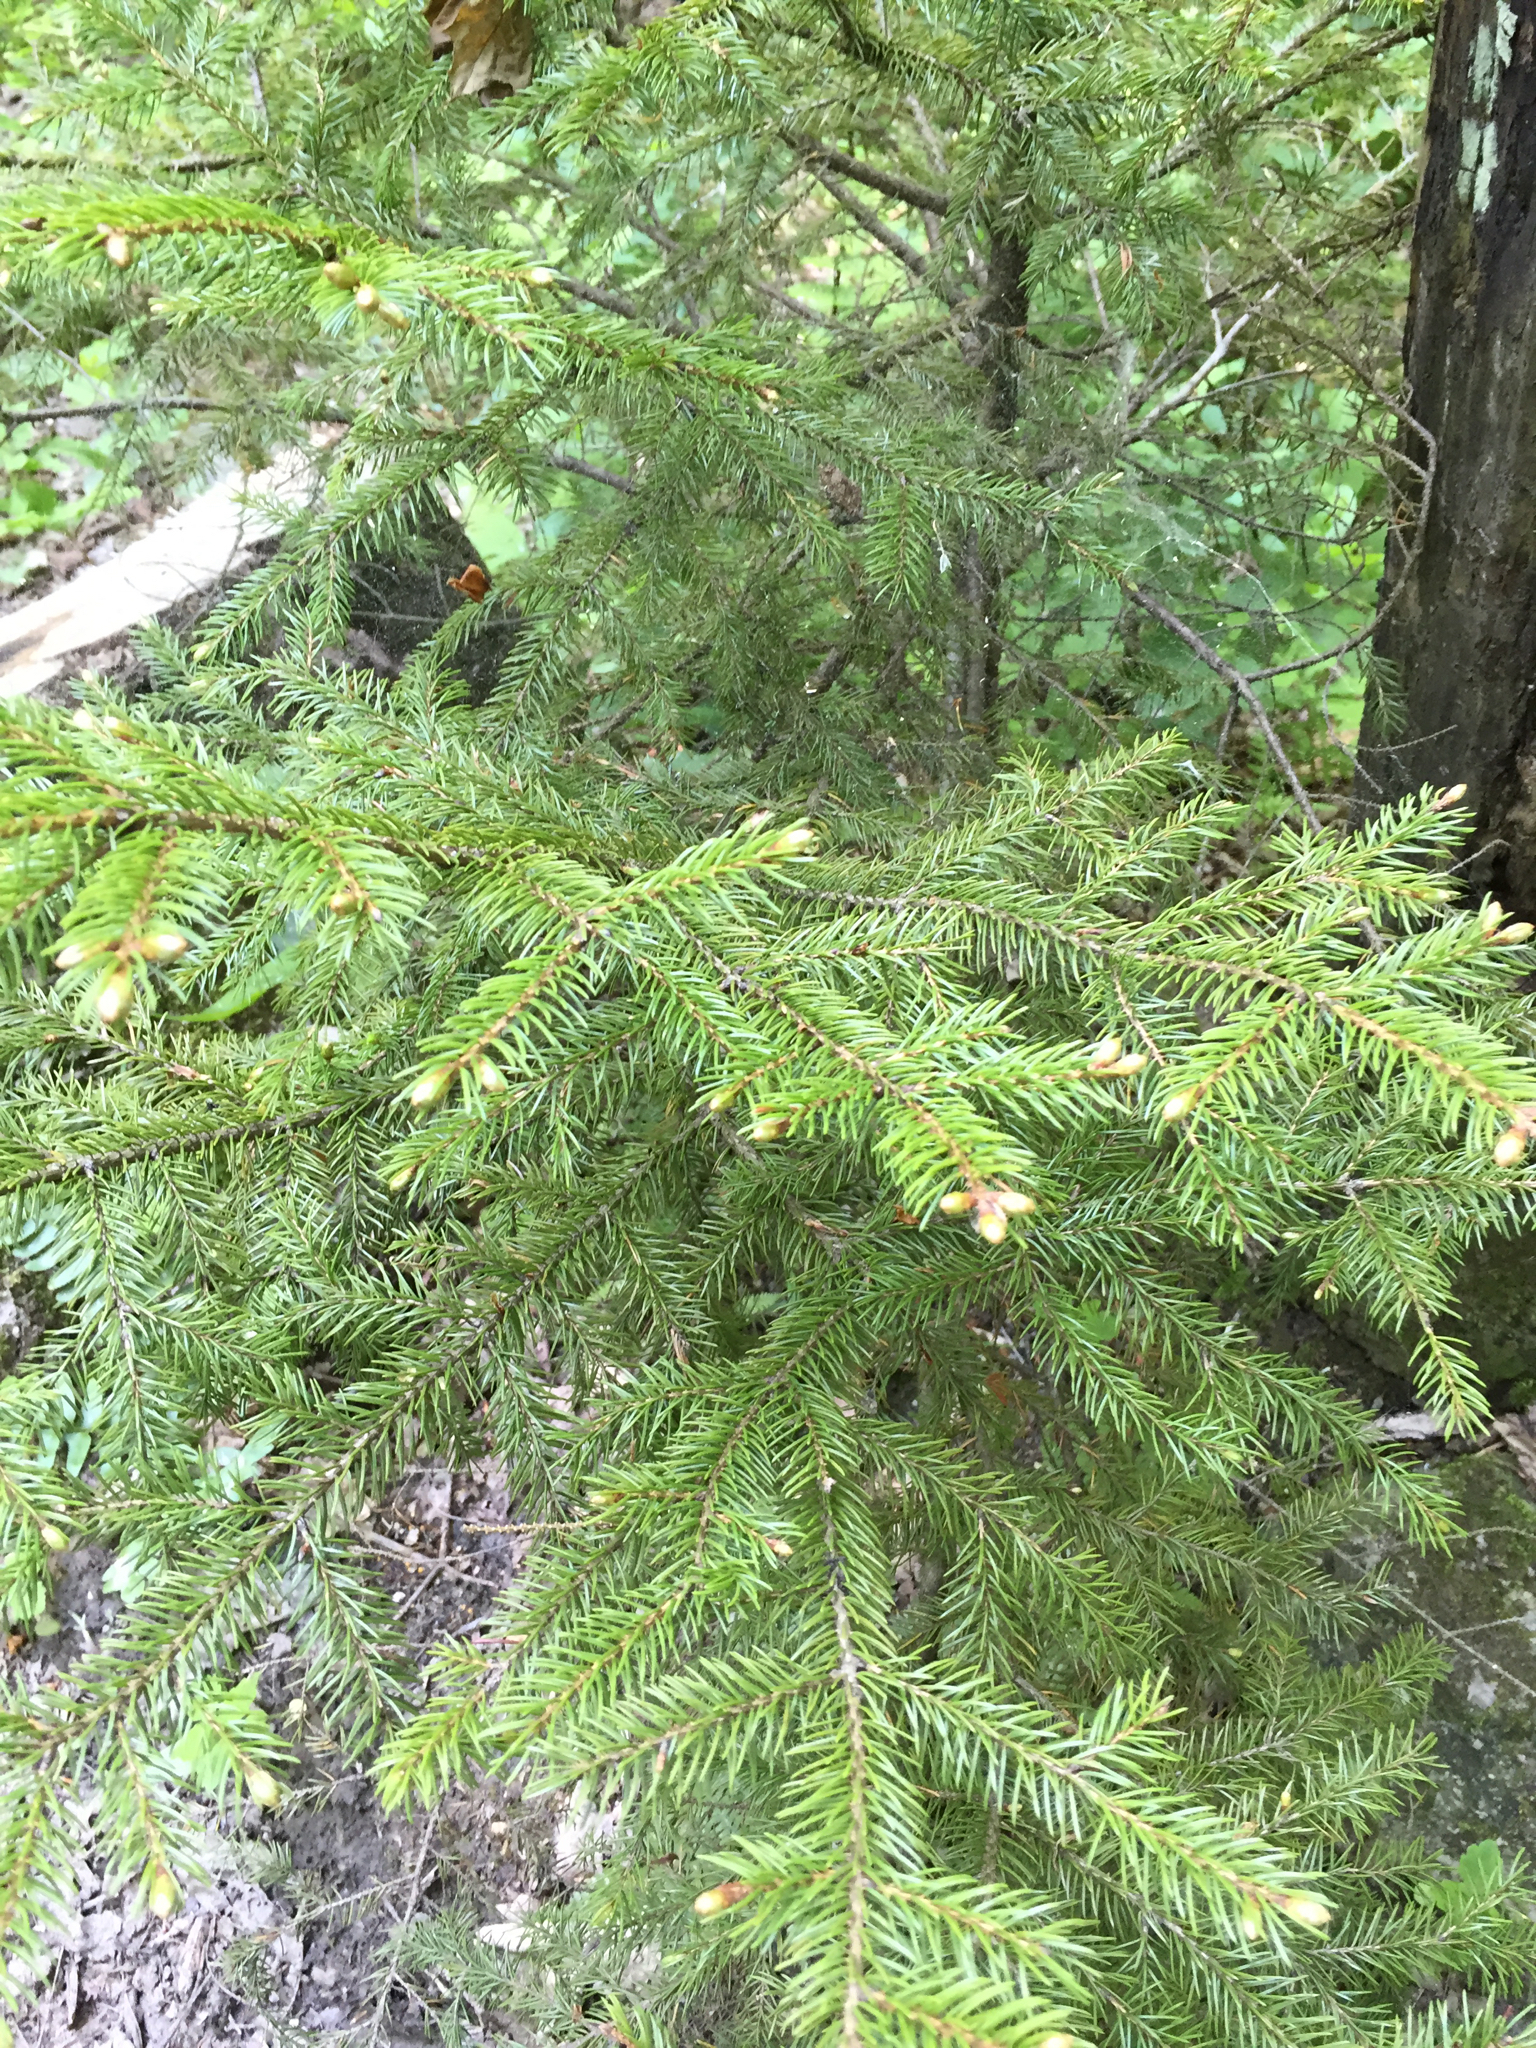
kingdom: Plantae
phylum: Tracheophyta
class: Pinopsida
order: Pinales
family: Pinaceae
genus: Picea
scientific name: Picea rubens
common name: Red spruce
